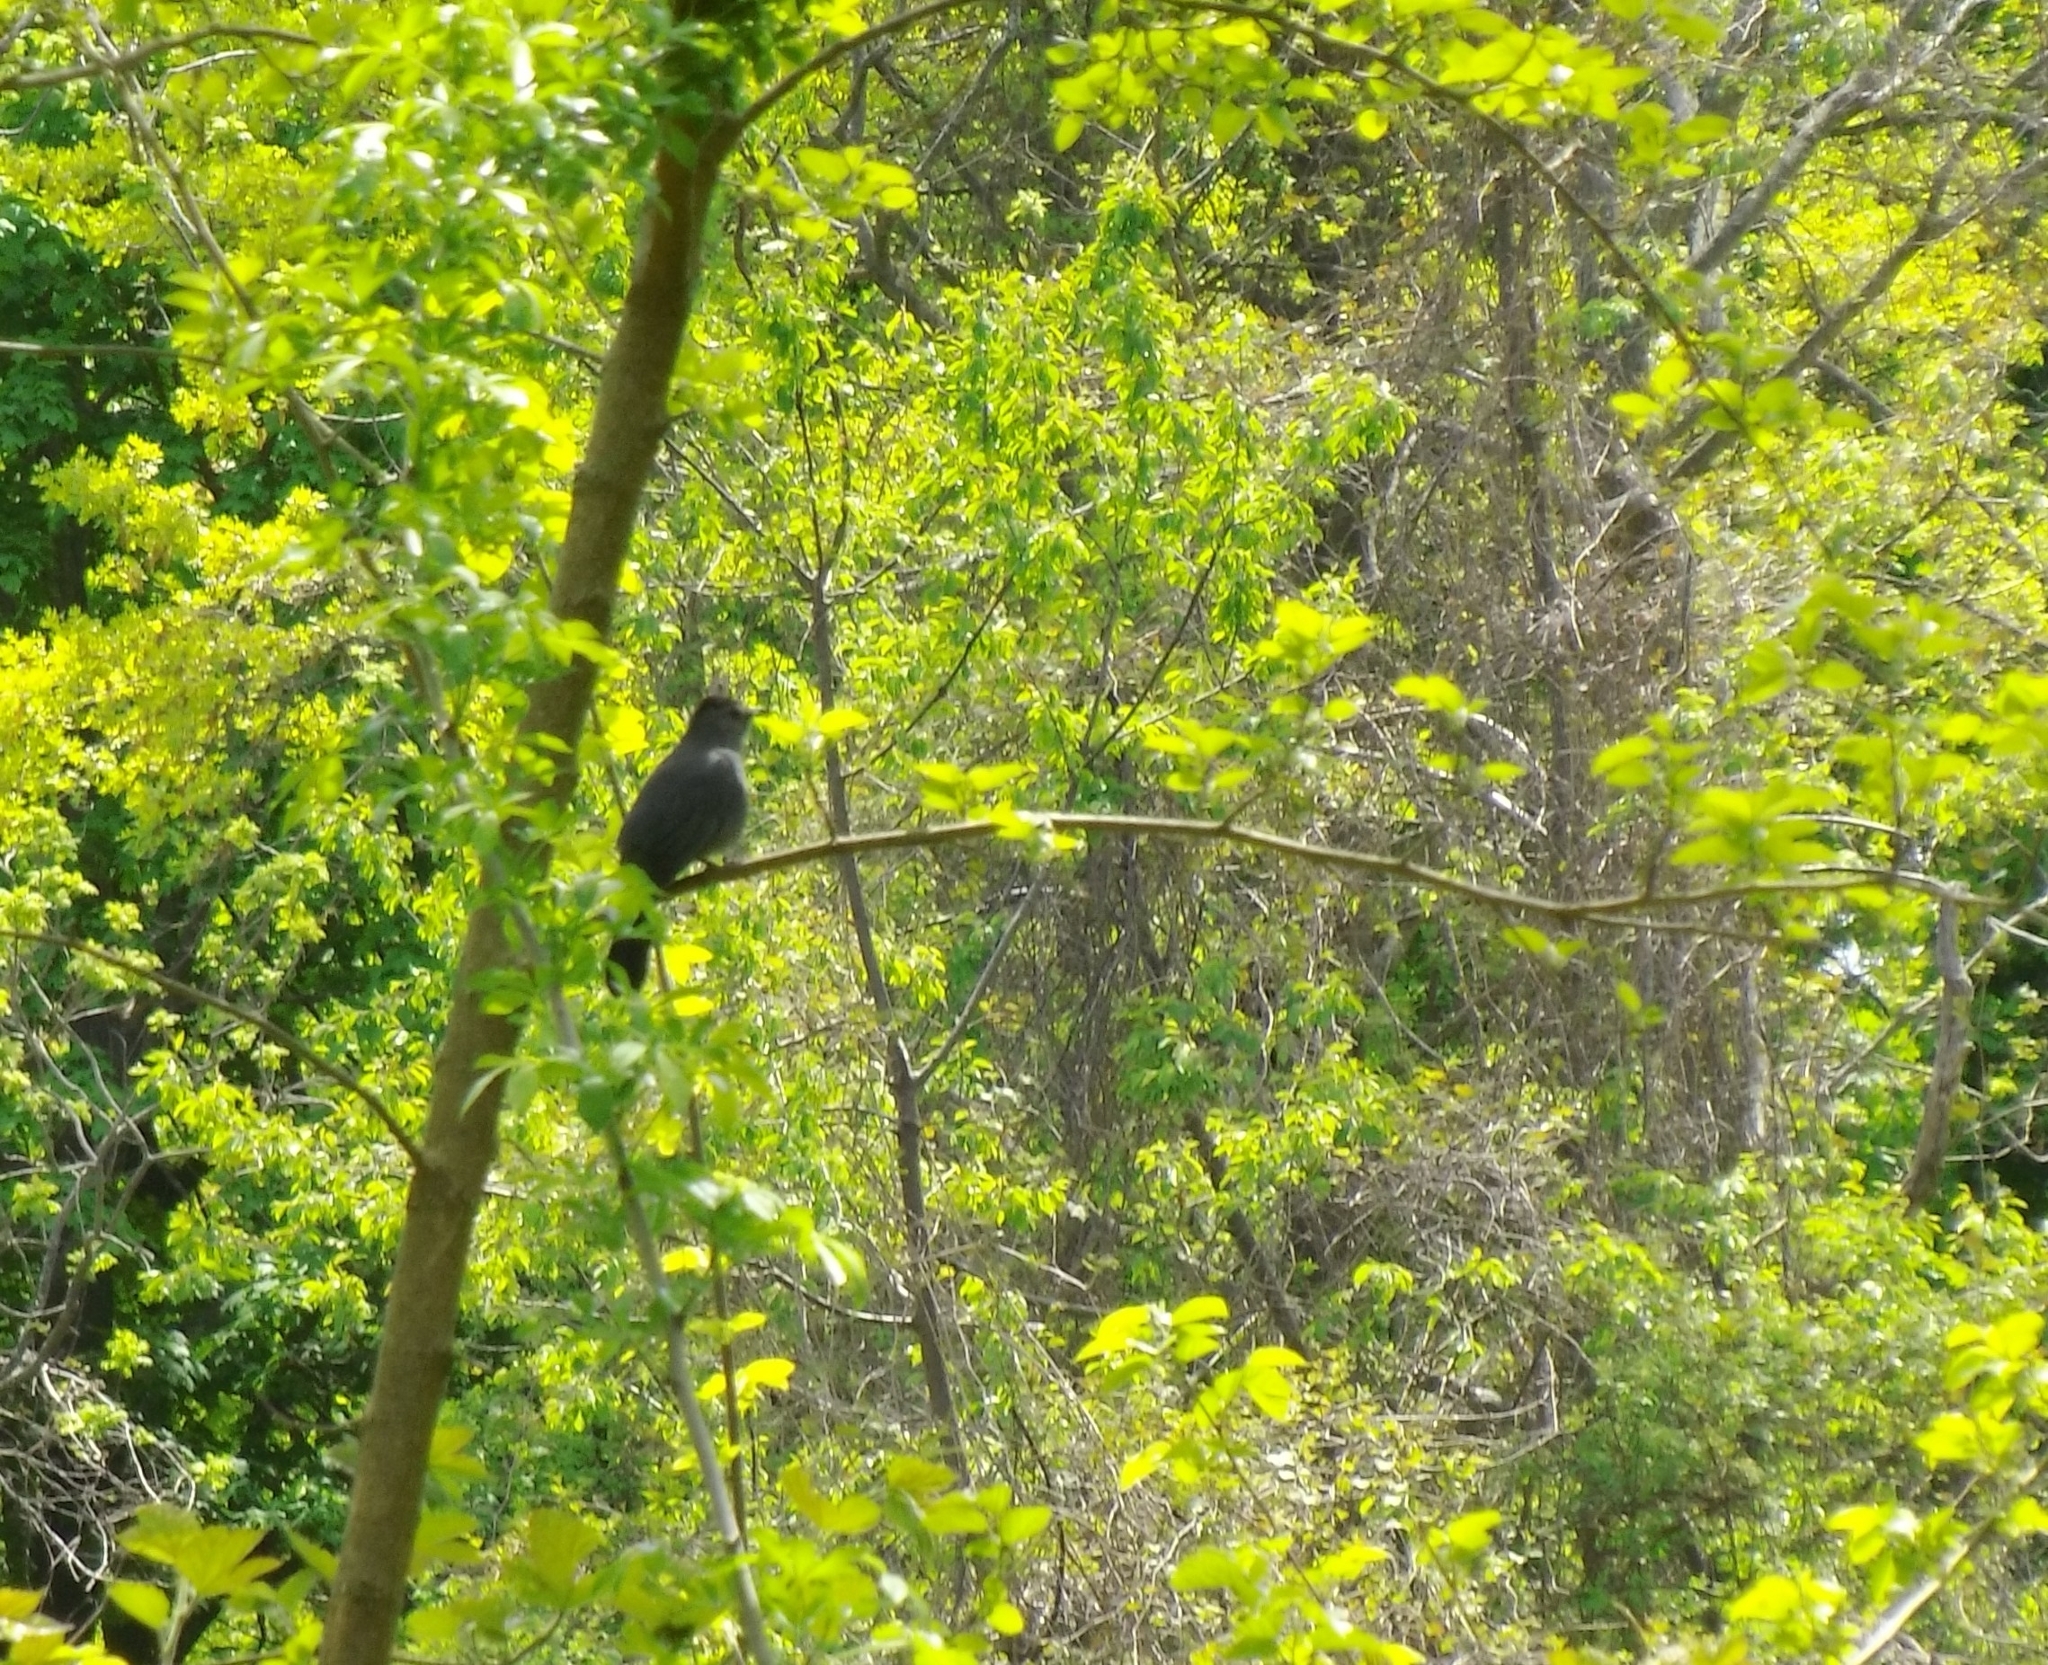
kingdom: Animalia
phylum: Chordata
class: Aves
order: Passeriformes
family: Mimidae
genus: Dumetella
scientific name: Dumetella carolinensis
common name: Gray catbird
